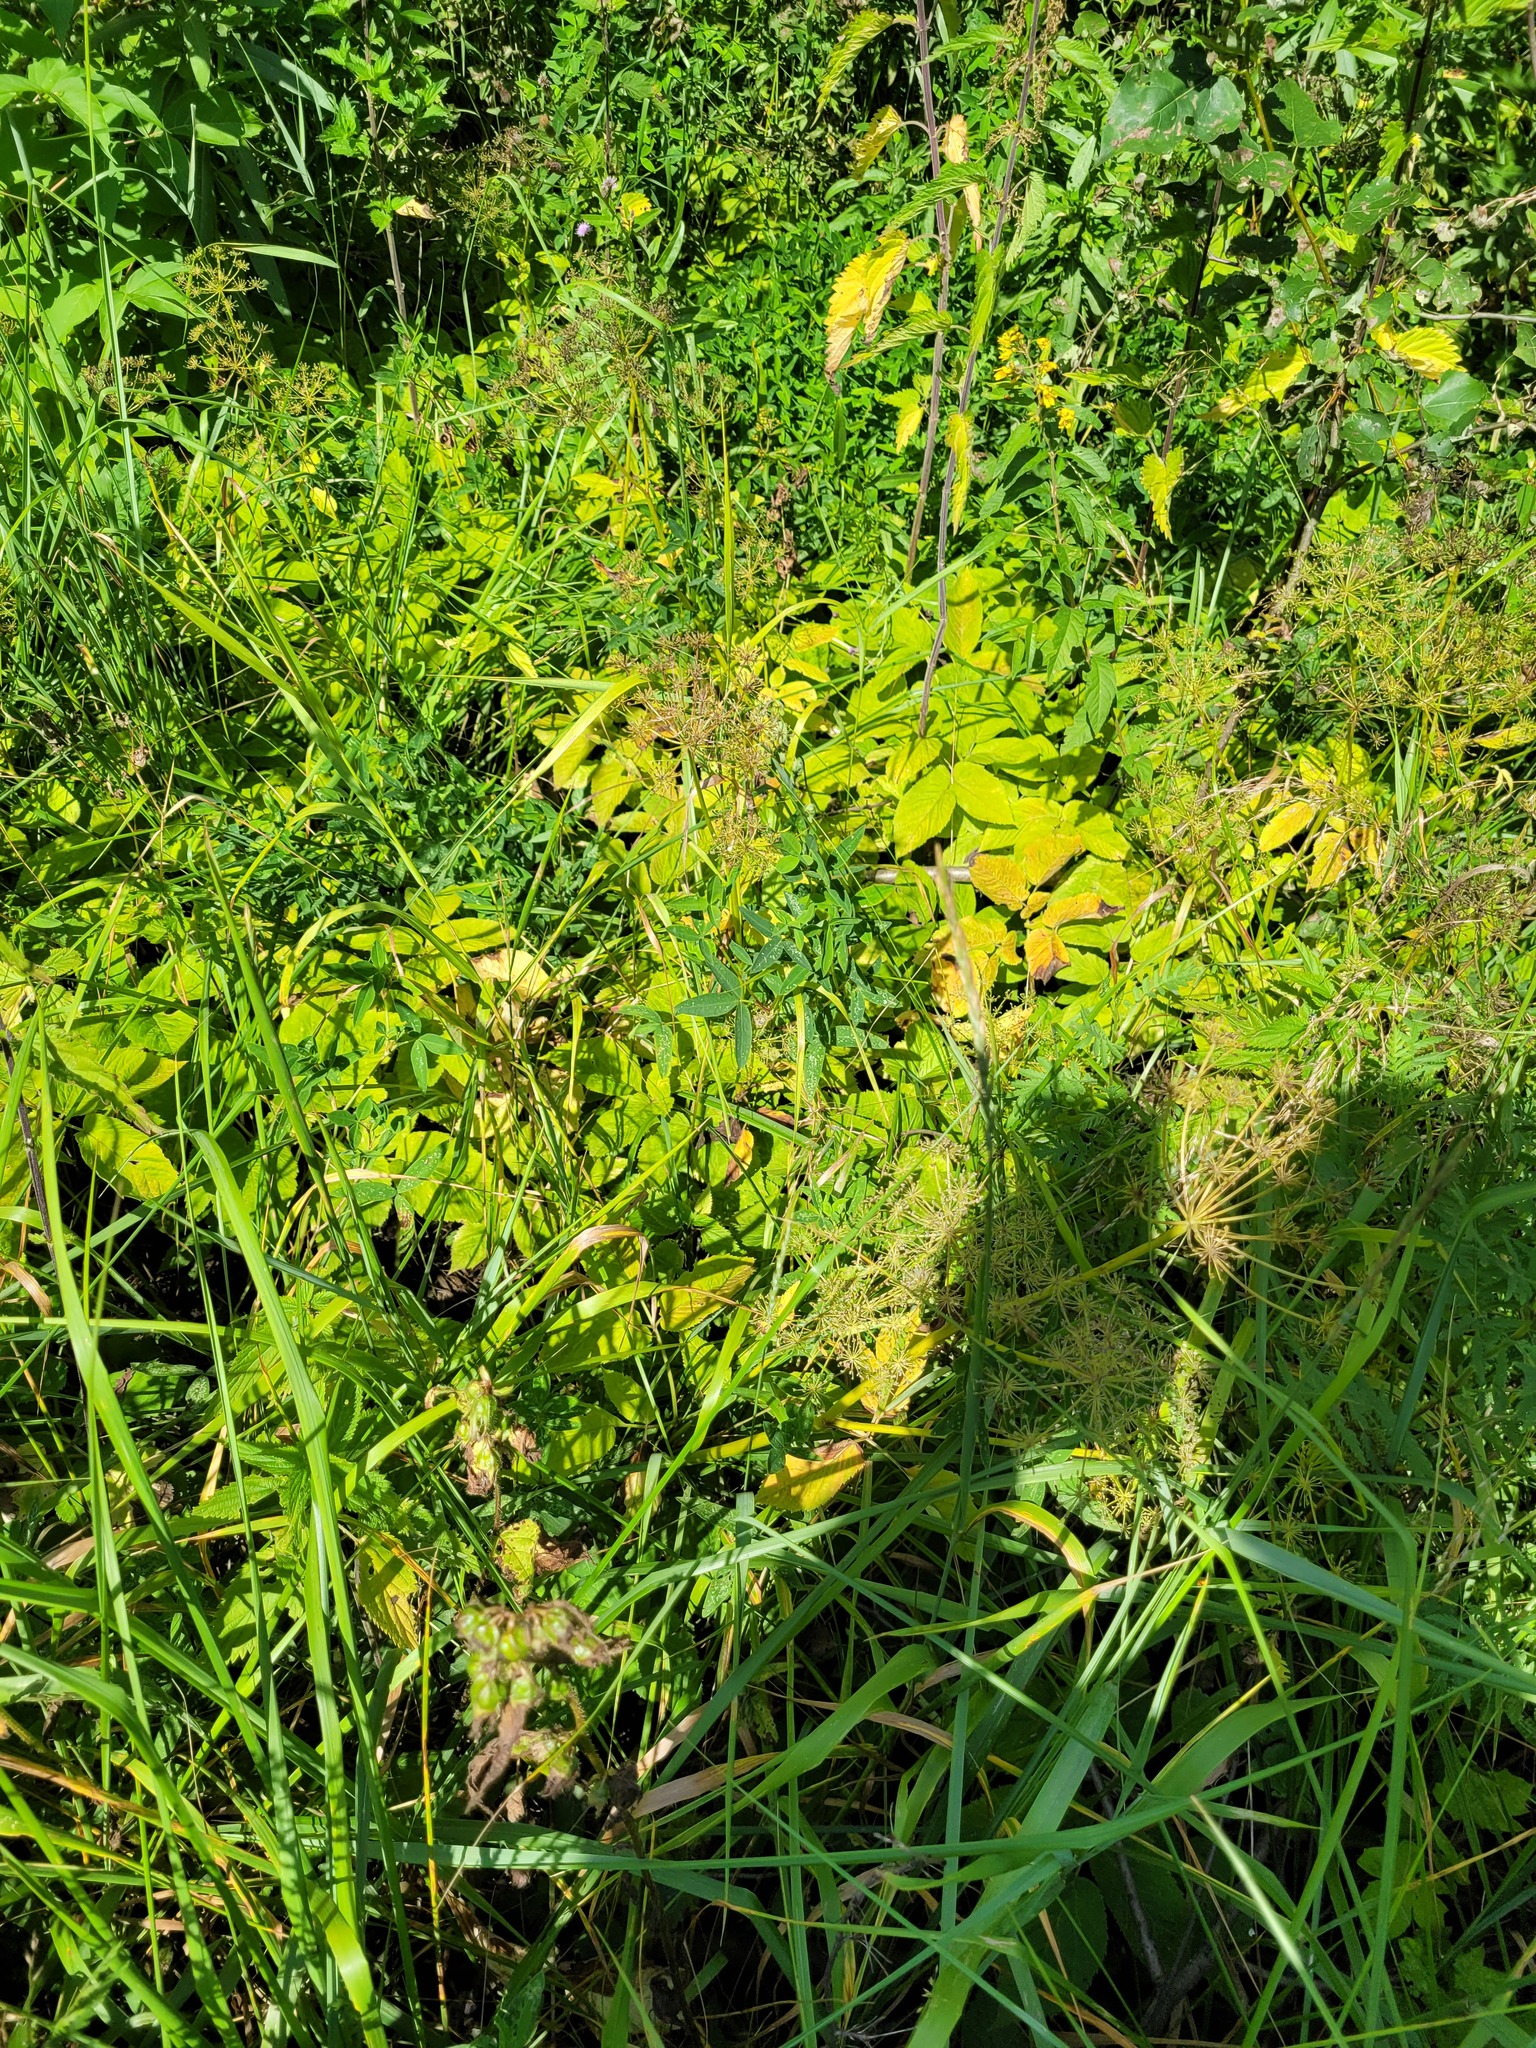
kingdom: Plantae
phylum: Tracheophyta
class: Magnoliopsida
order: Fabales
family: Fabaceae
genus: Trifolium
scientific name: Trifolium medium
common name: Zigzag clover
